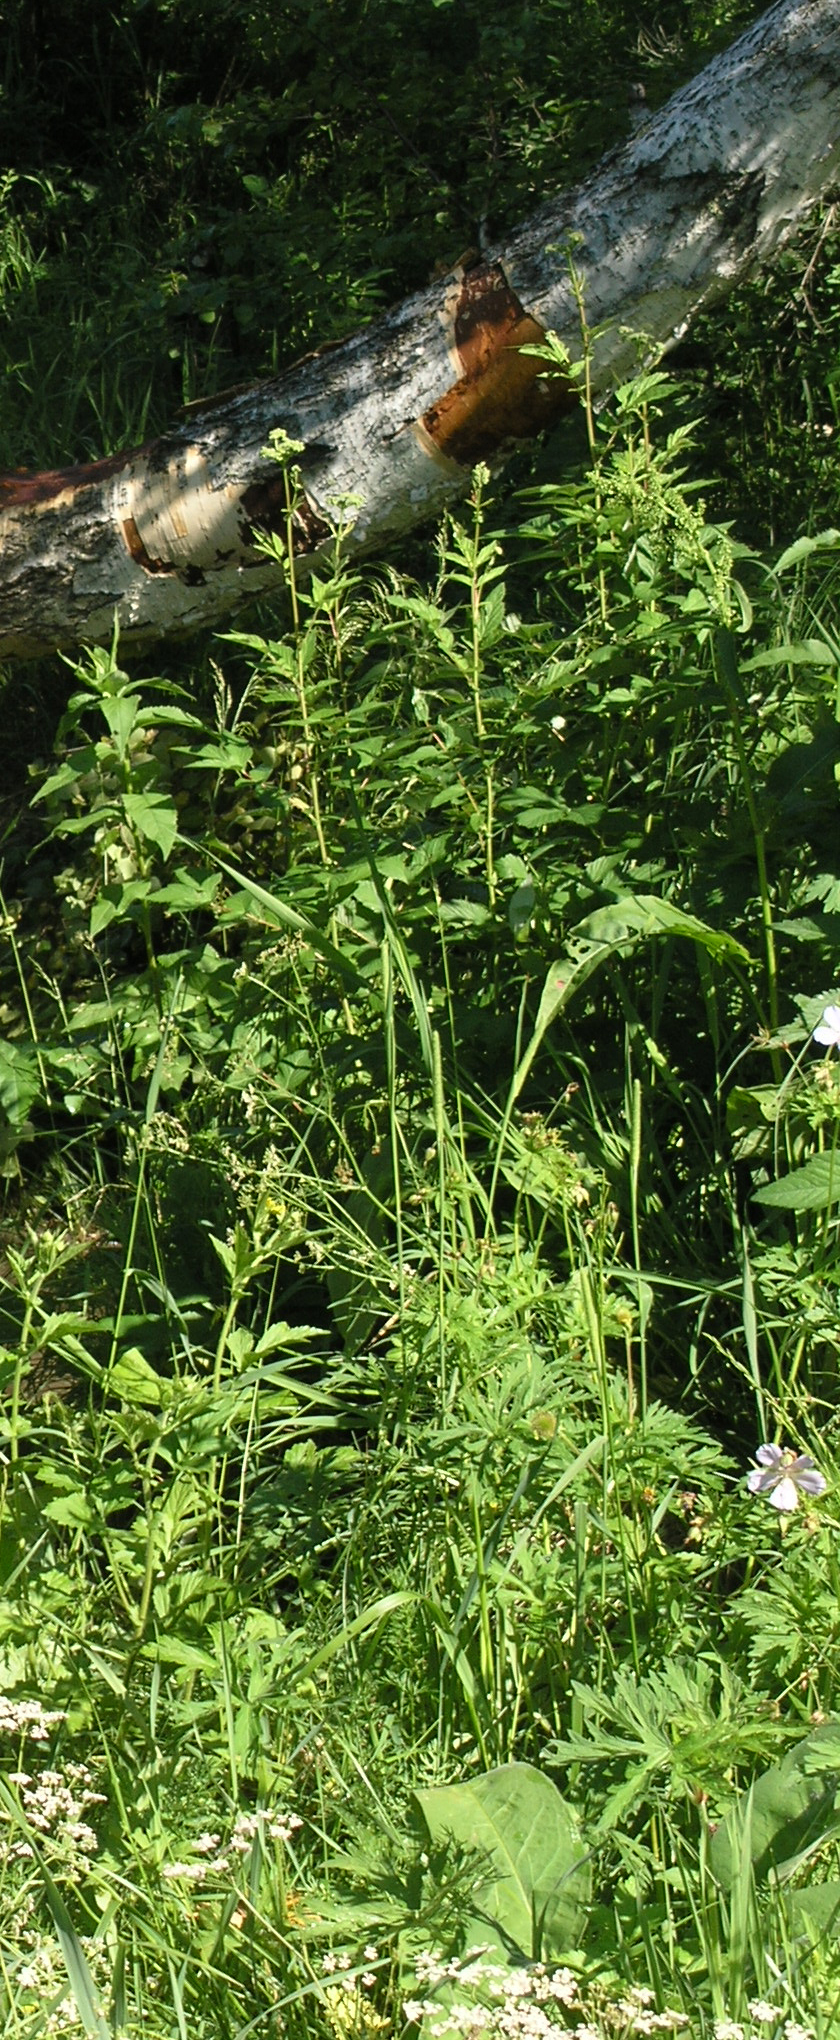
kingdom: Plantae
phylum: Tracheophyta
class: Magnoliopsida
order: Rosales
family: Rosaceae
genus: Filipendula
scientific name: Filipendula ulmaria
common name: Meadowsweet
